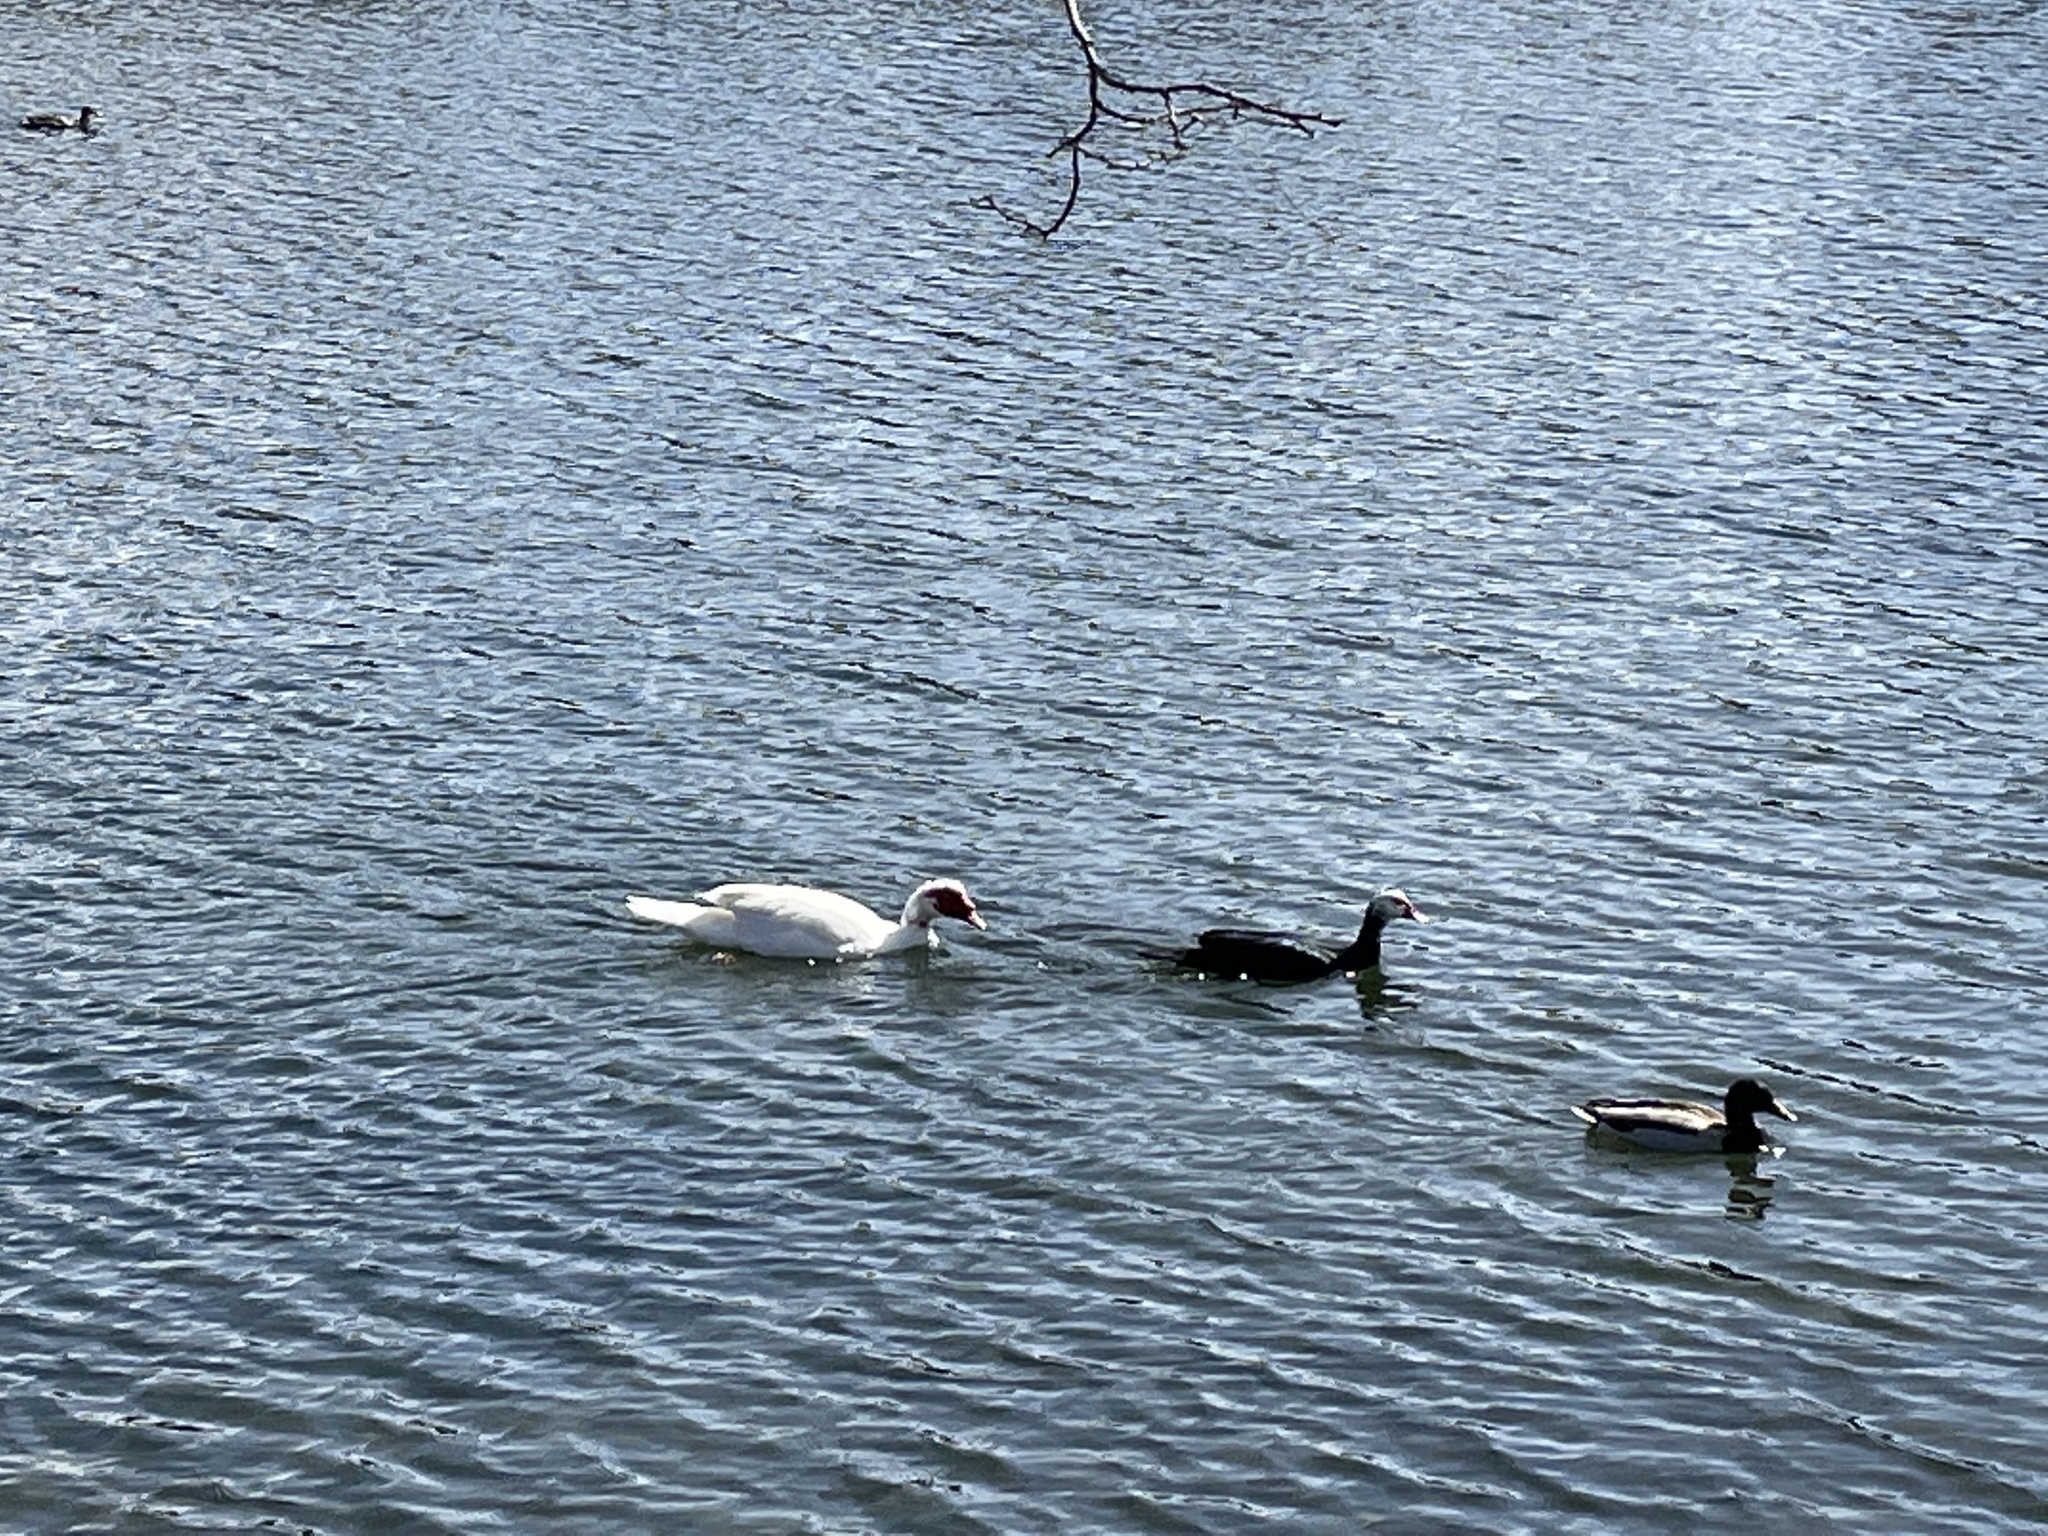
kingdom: Animalia
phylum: Chordata
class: Aves
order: Anseriformes
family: Anatidae
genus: Cairina
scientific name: Cairina moschata
